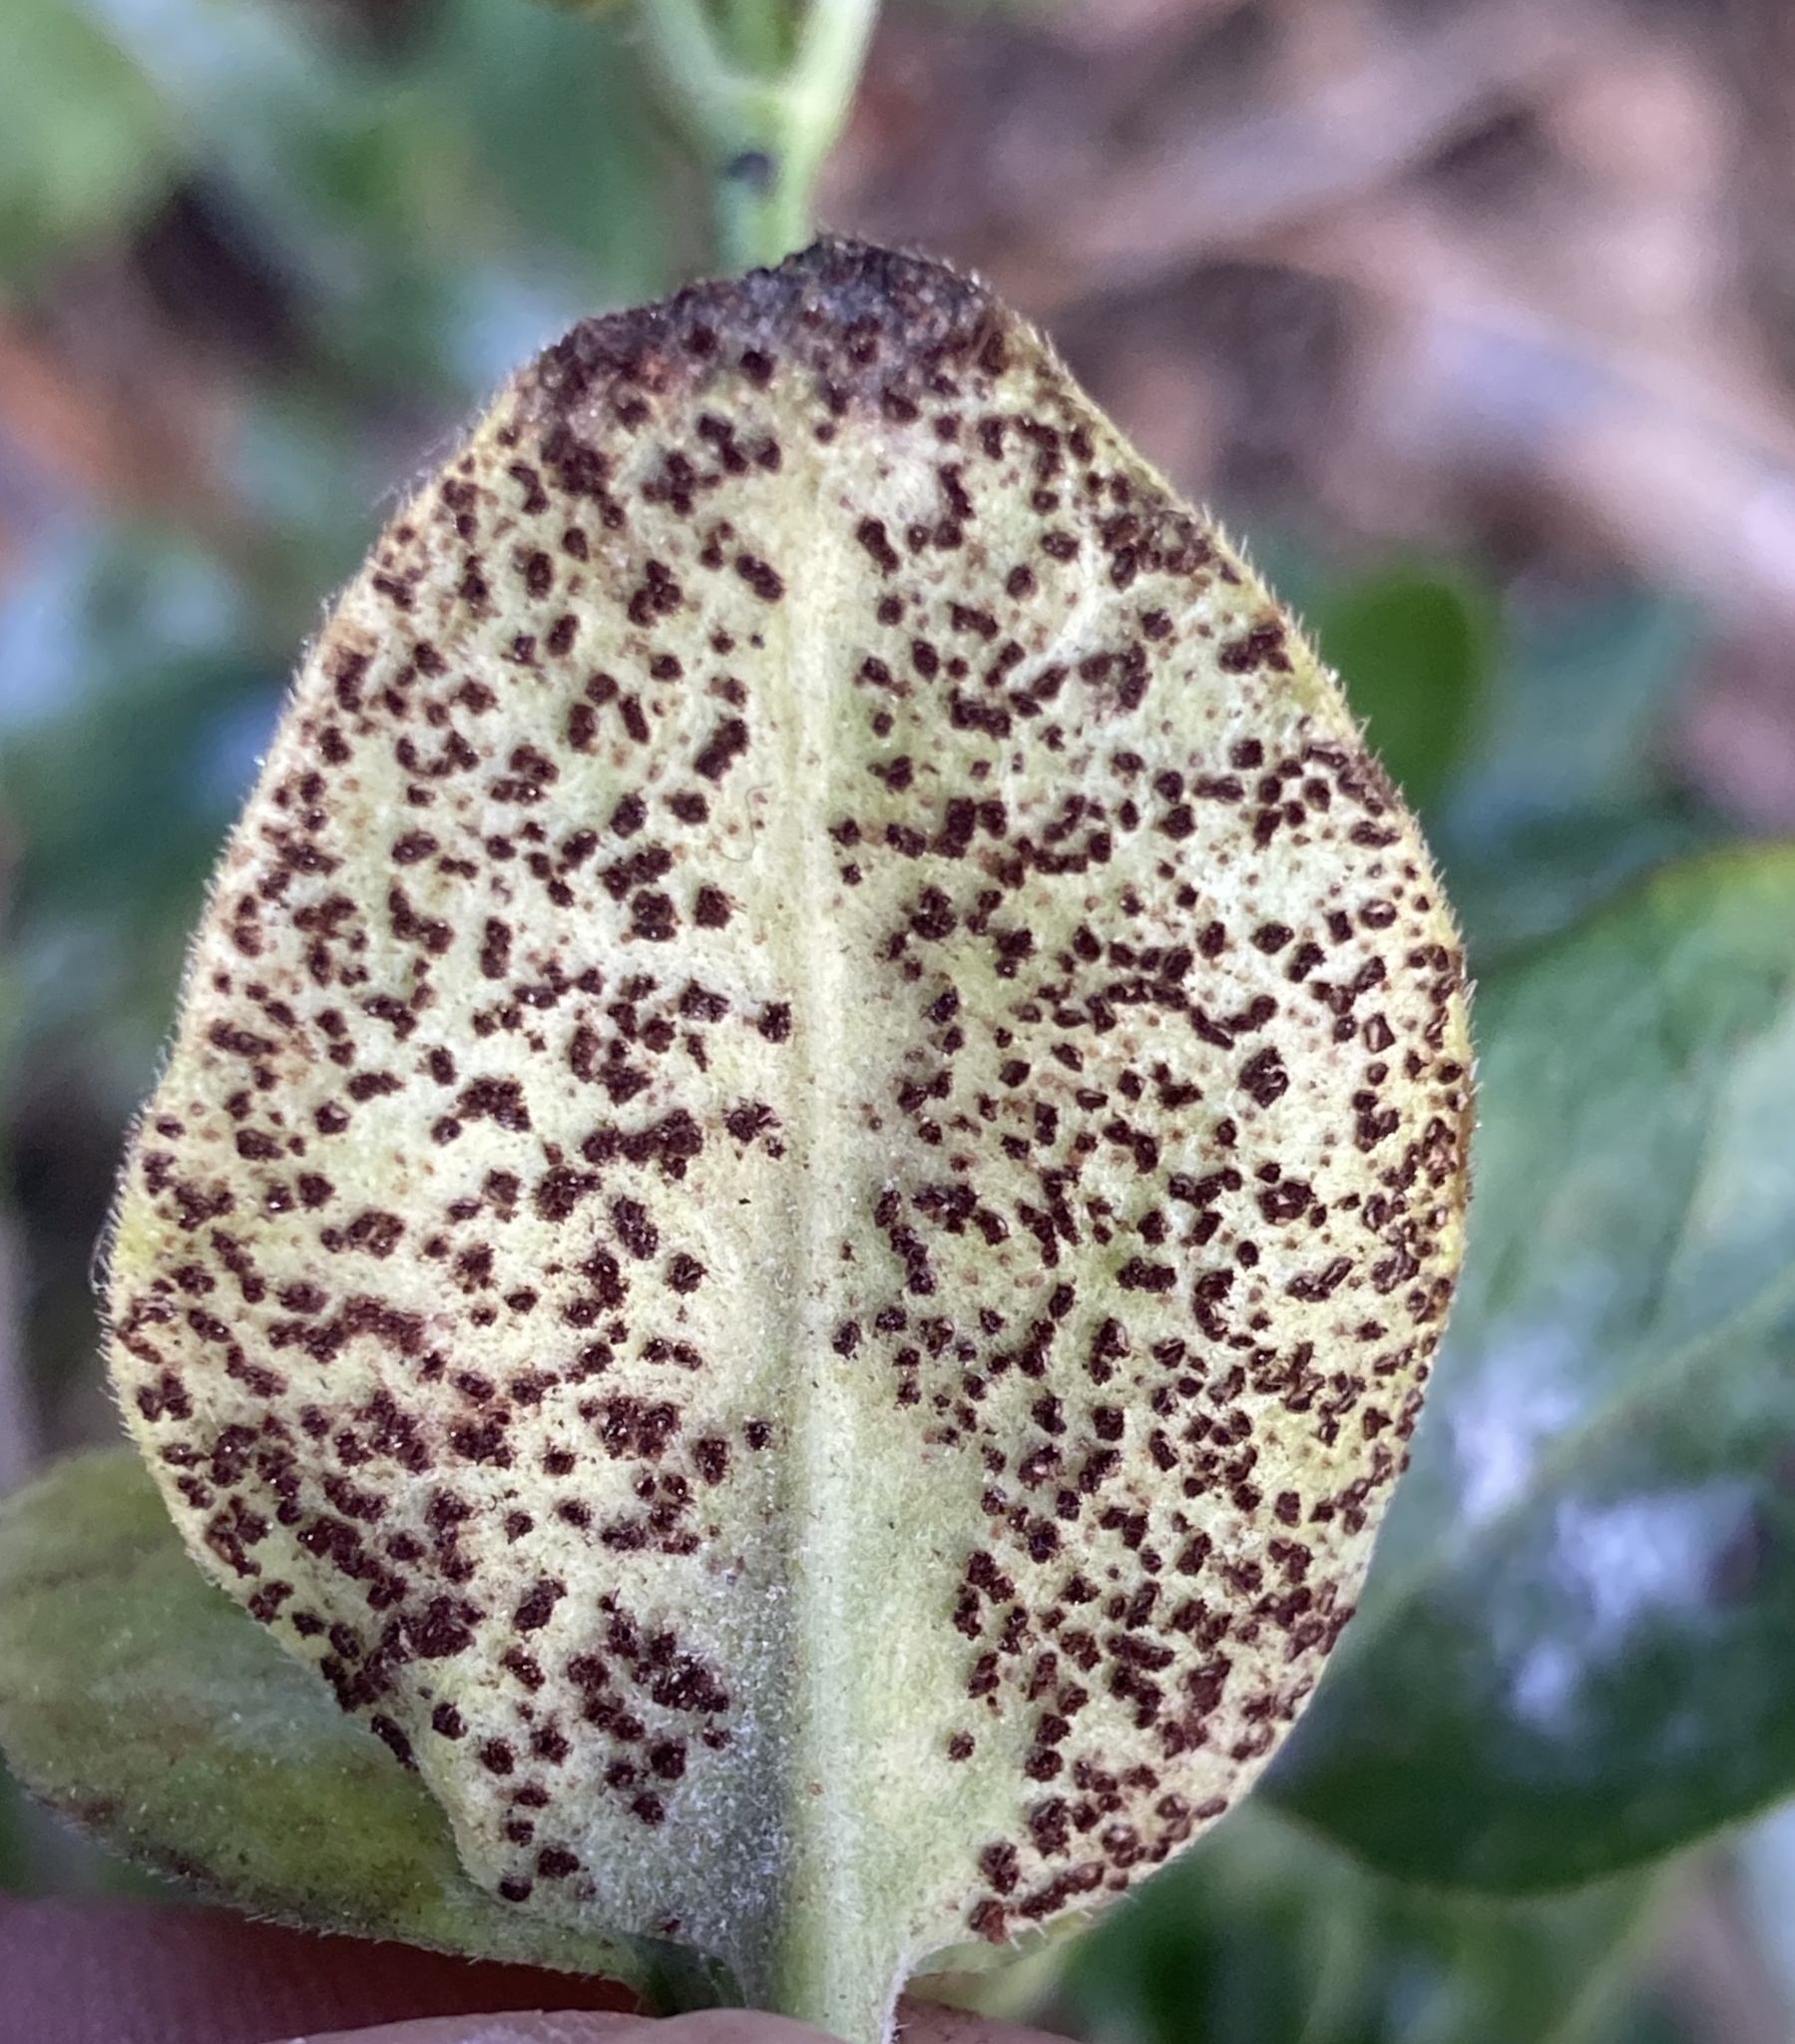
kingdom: Fungi
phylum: Basidiomycota
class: Pucciniomycetes
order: Pucciniales
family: Pucciniaceae
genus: Puccinia
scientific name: Puccinia vincae
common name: Periwinkle rust
